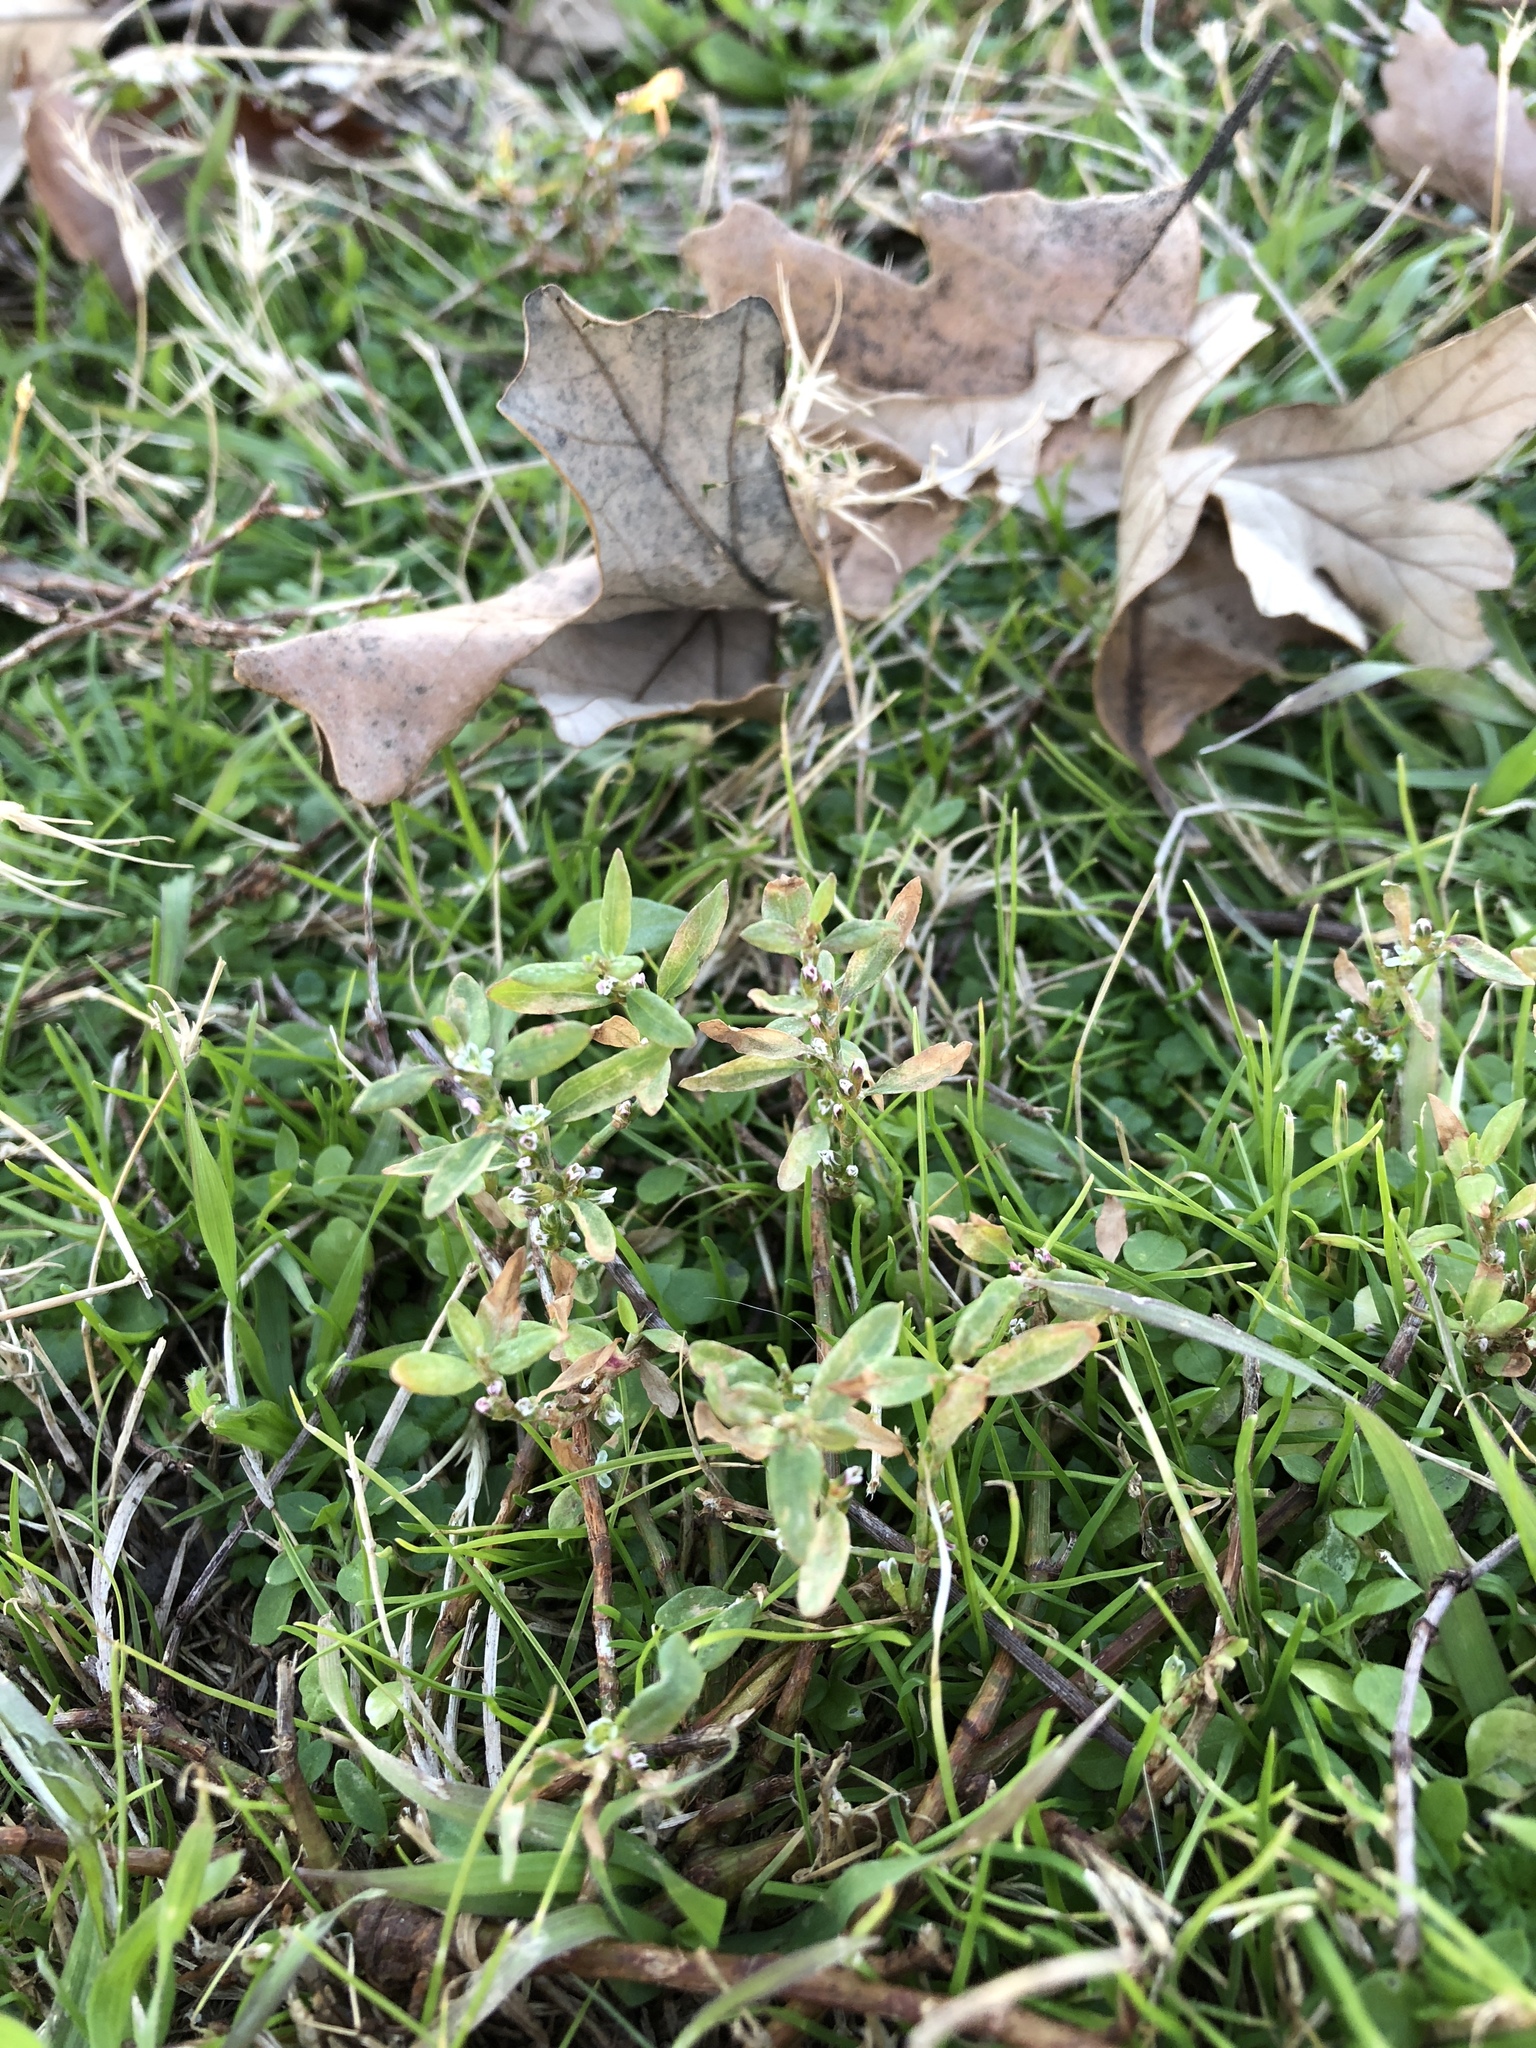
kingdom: Plantae
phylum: Tracheophyta
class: Magnoliopsida
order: Caryophyllales
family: Polygonaceae
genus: Polygonum
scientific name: Polygonum aviculare
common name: Prostrate knotweed
